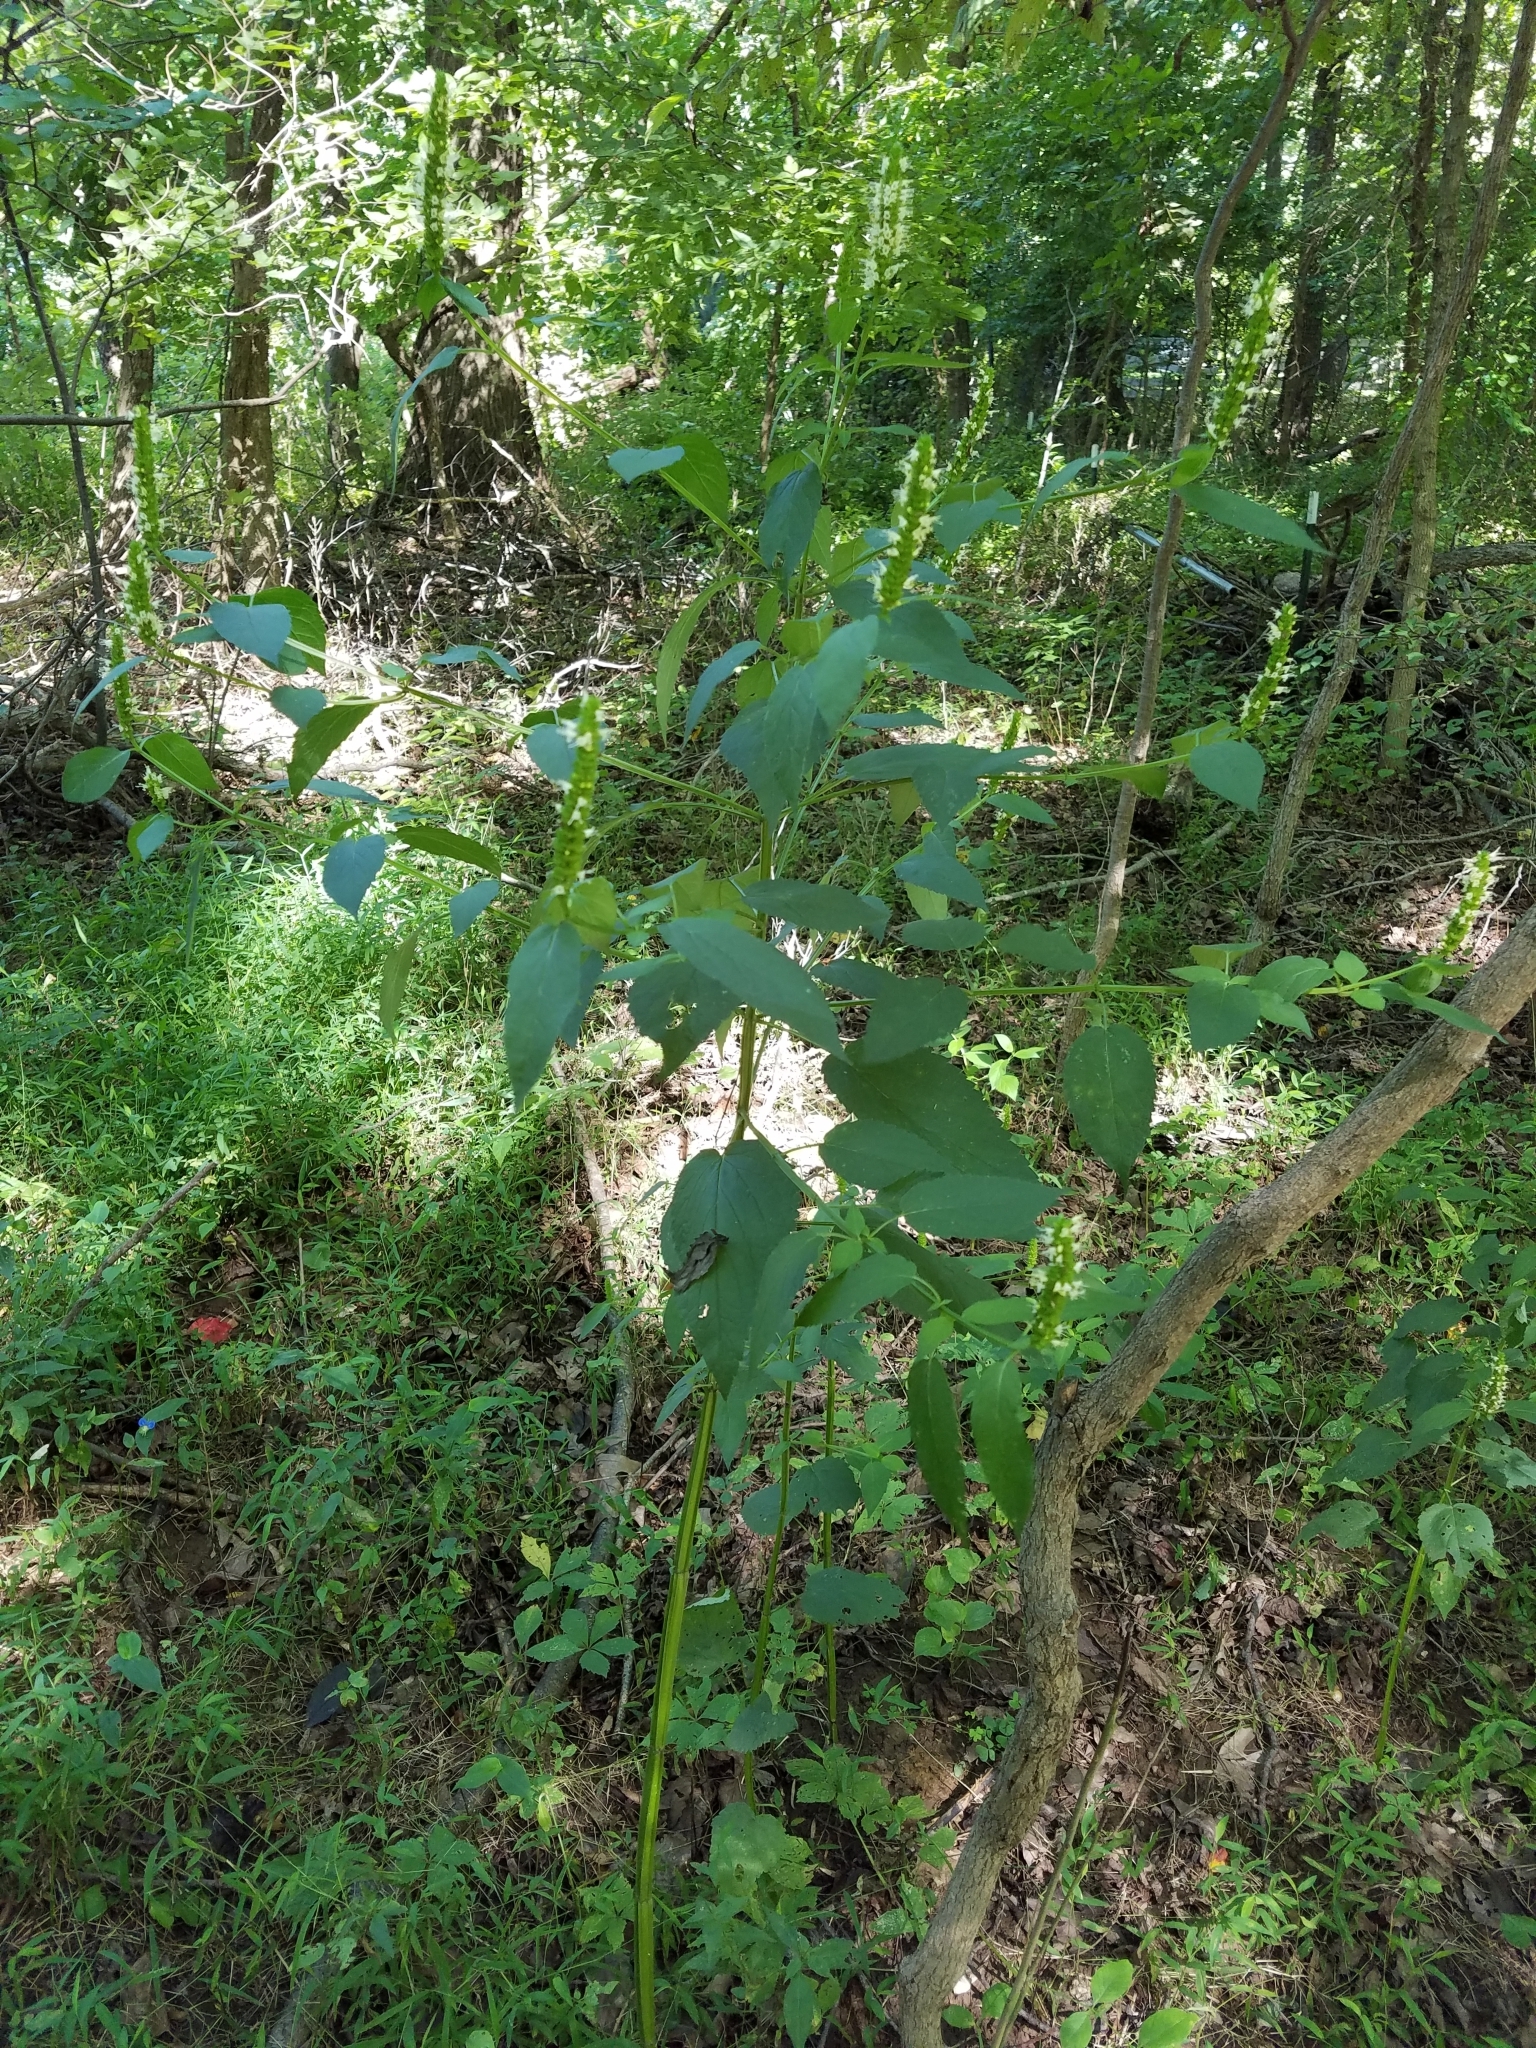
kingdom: Plantae
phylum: Tracheophyta
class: Magnoliopsida
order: Lamiales
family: Lamiaceae
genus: Agastache
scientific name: Agastache nepetoides
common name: Catnip giant hyssop
